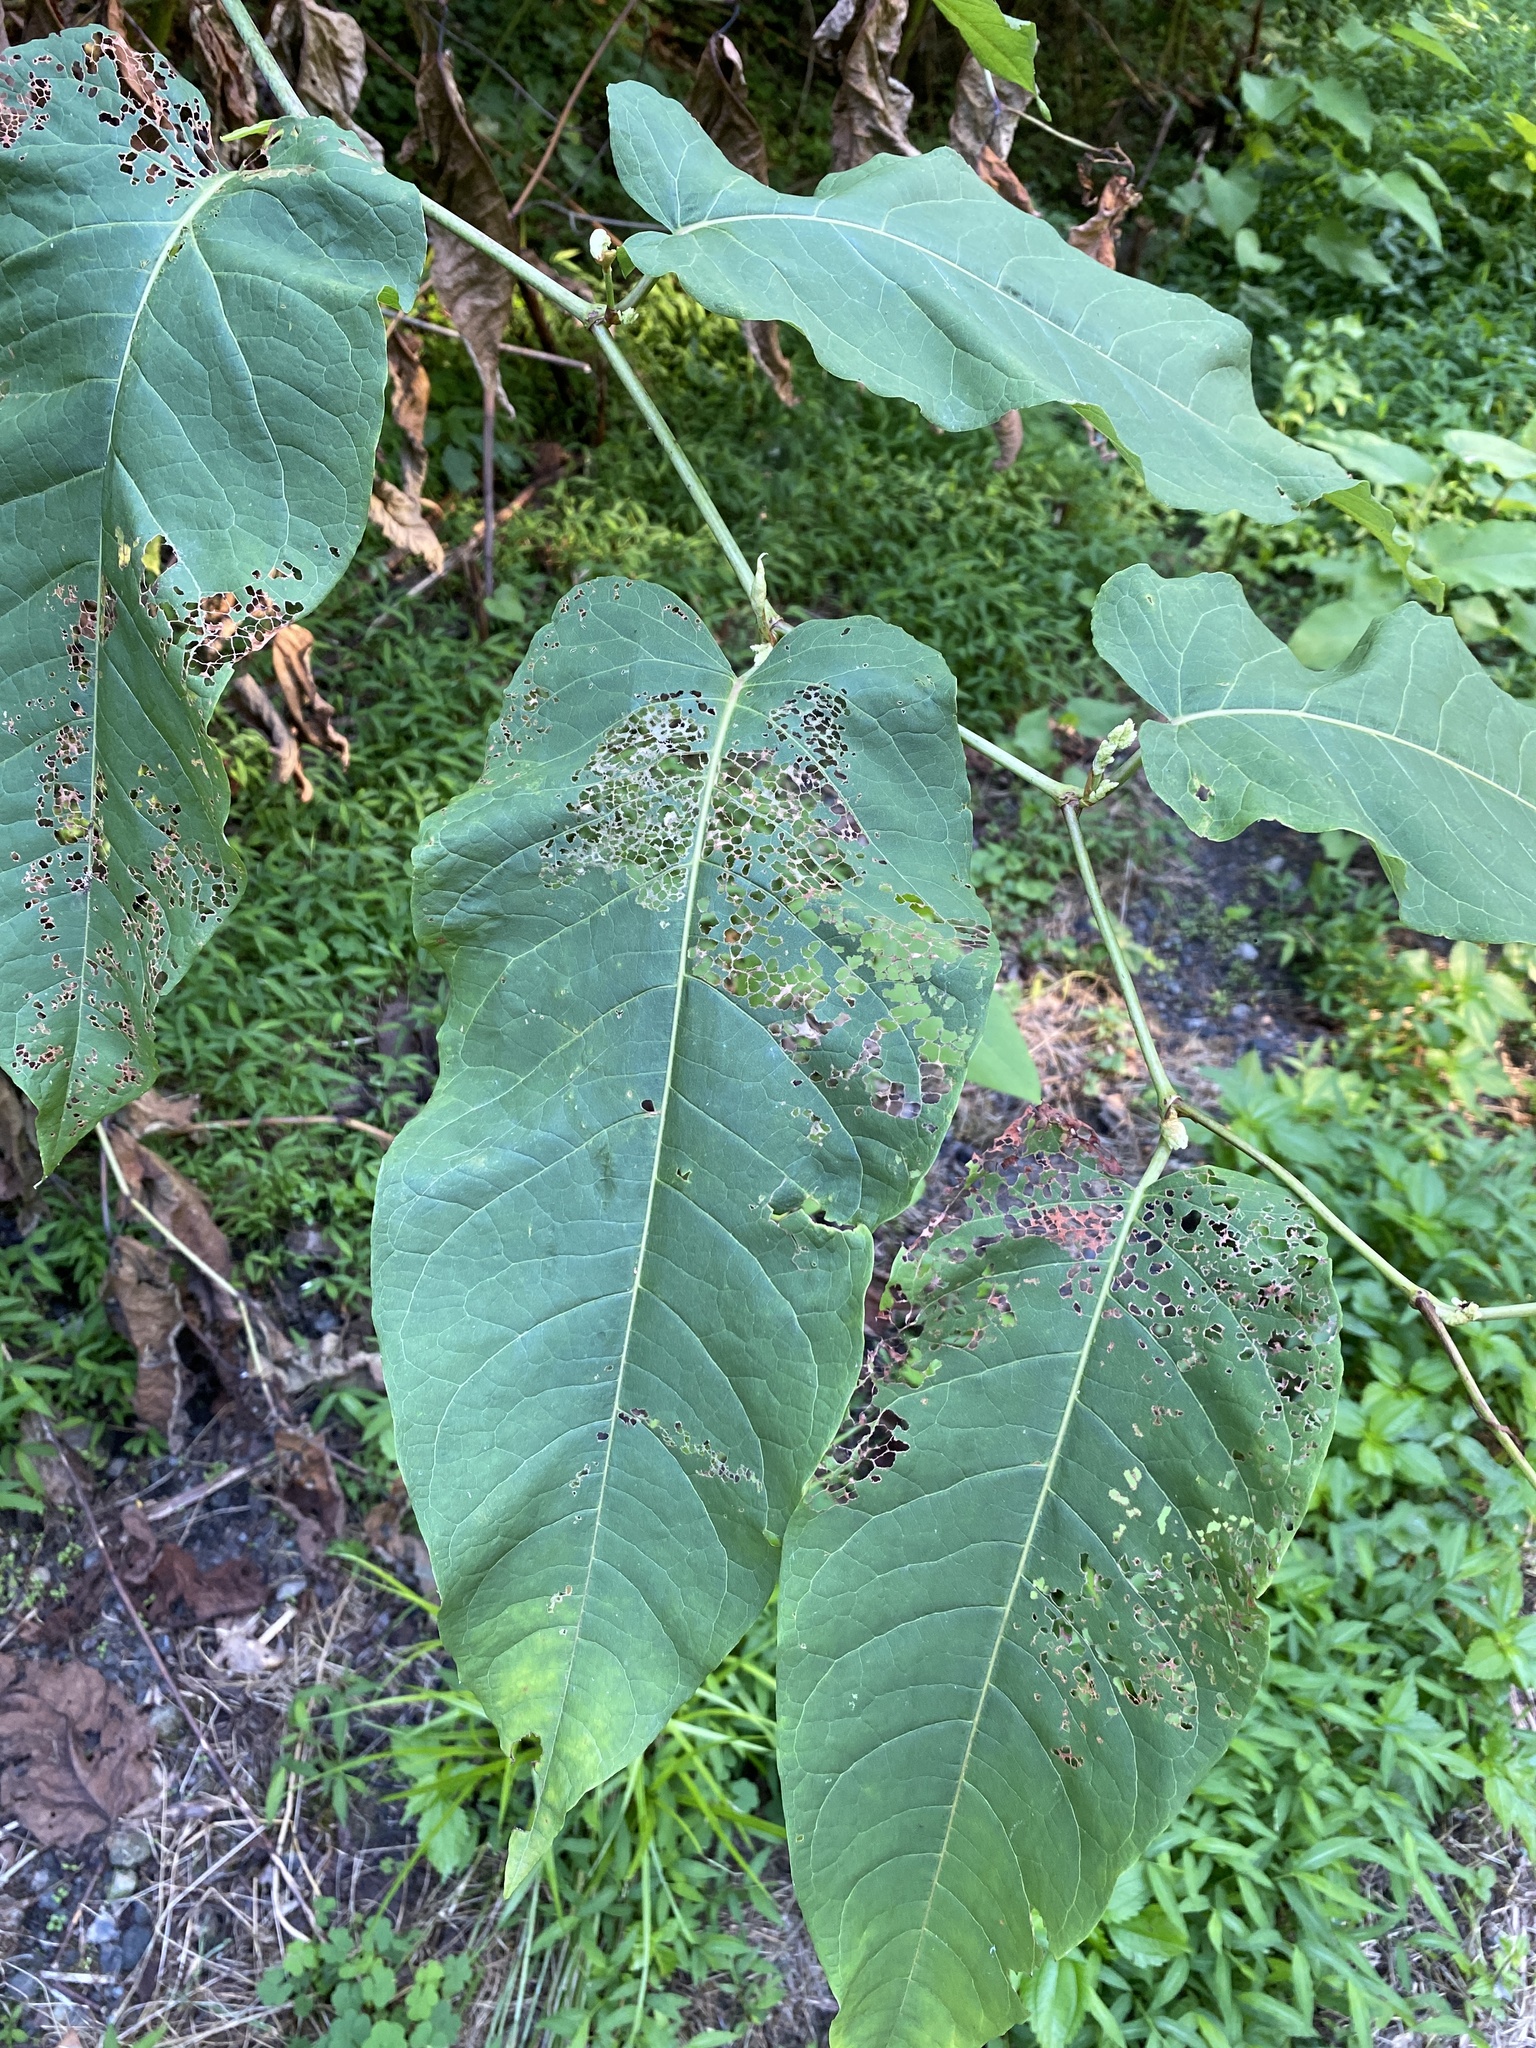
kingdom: Plantae
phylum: Tracheophyta
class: Magnoliopsida
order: Caryophyllales
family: Polygonaceae
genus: Reynoutria
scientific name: Reynoutria sachalinensis
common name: Giant knotweed
